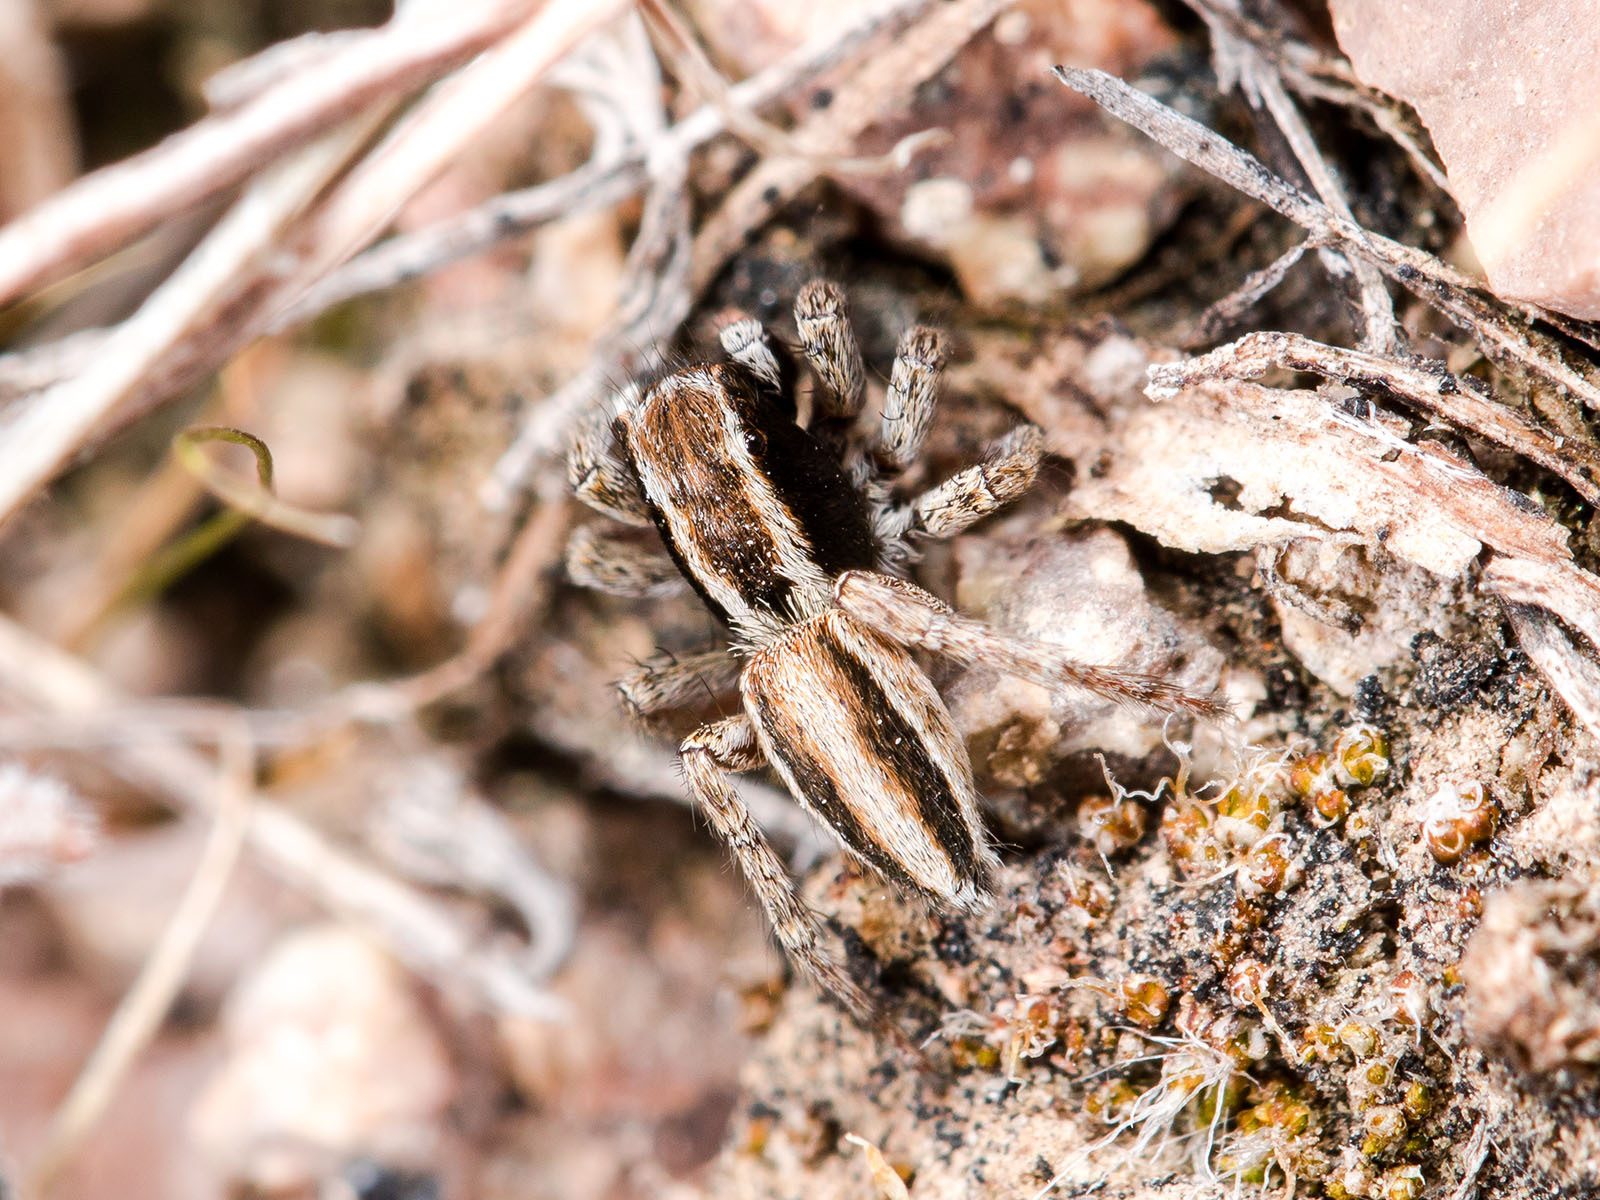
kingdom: Animalia
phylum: Arthropoda
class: Arachnida
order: Araneae
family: Salticidae
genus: Phlegra
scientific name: Phlegra andreevae
